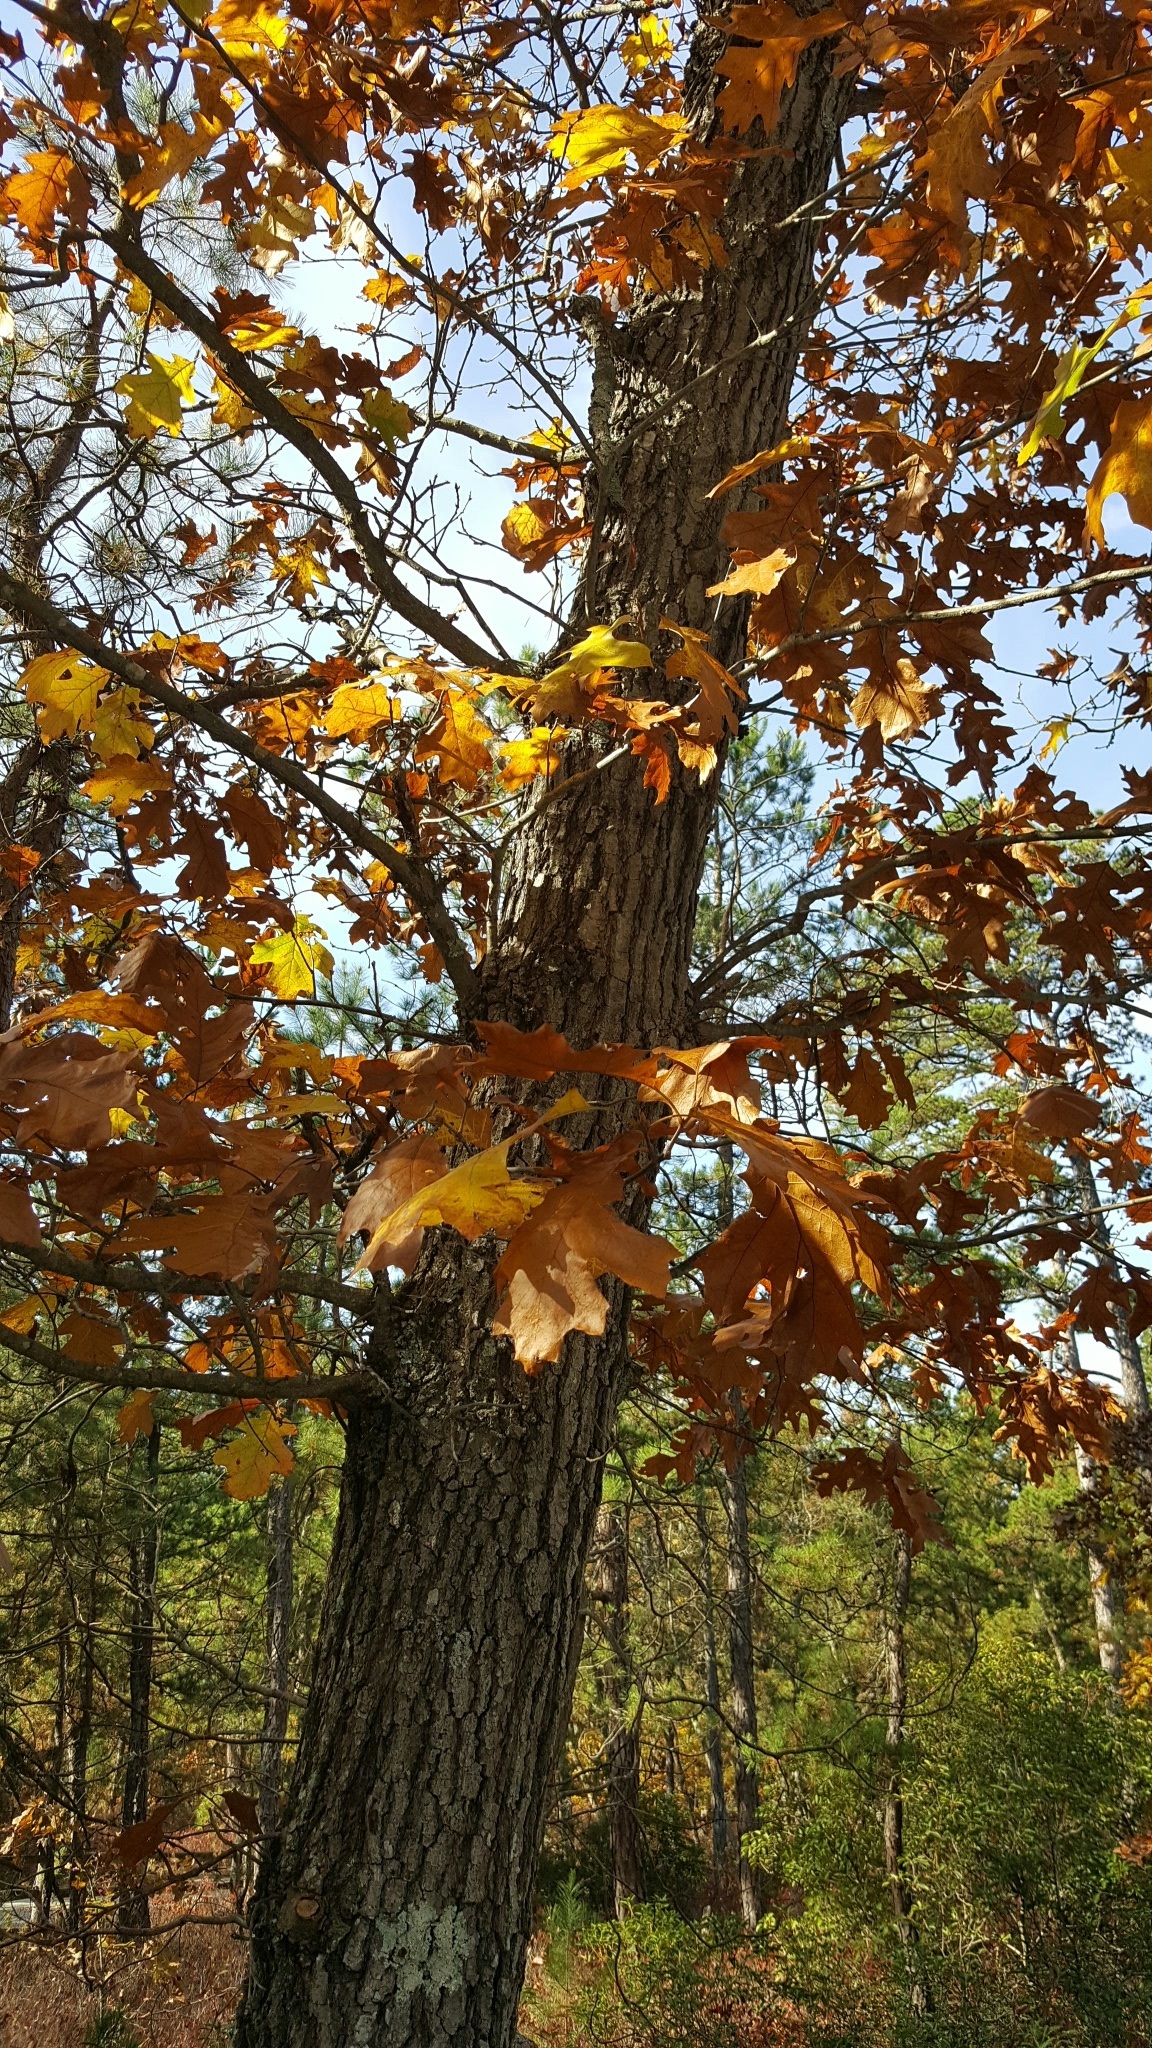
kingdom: Plantae
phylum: Tracheophyta
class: Magnoliopsida
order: Fagales
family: Fagaceae
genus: Quercus
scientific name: Quercus velutina
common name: Black oak
